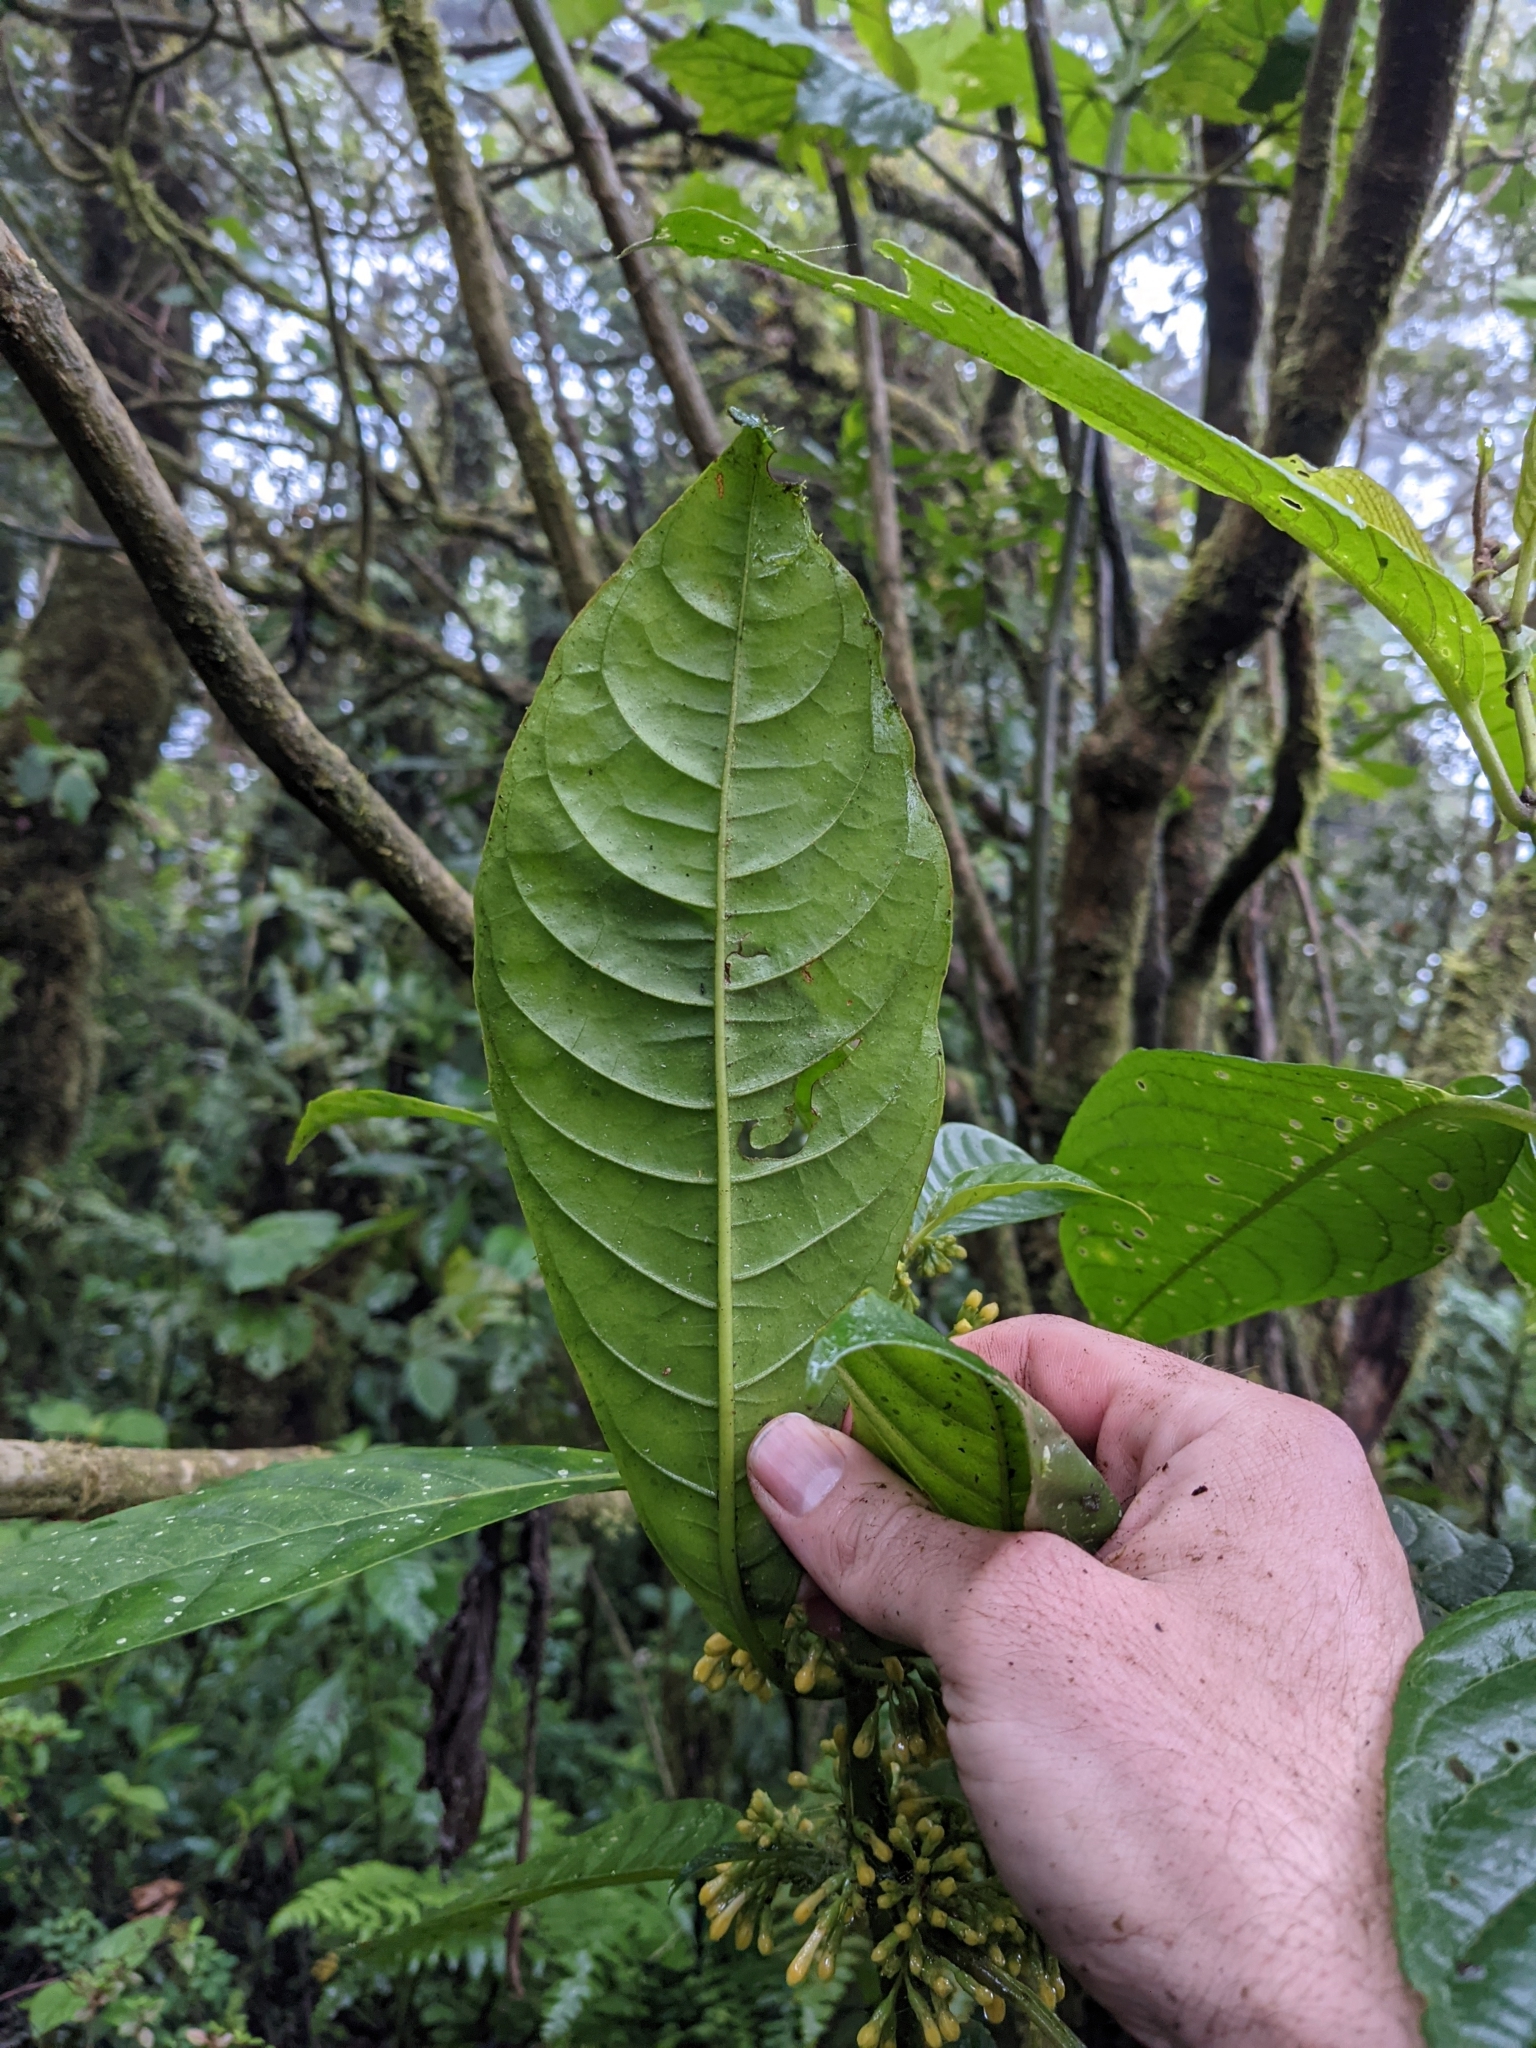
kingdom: Plantae
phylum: Tracheophyta
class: Magnoliopsida
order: Gentianales
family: Rubiaceae
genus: Hoffmannia
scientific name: Hoffmannia arborescens
